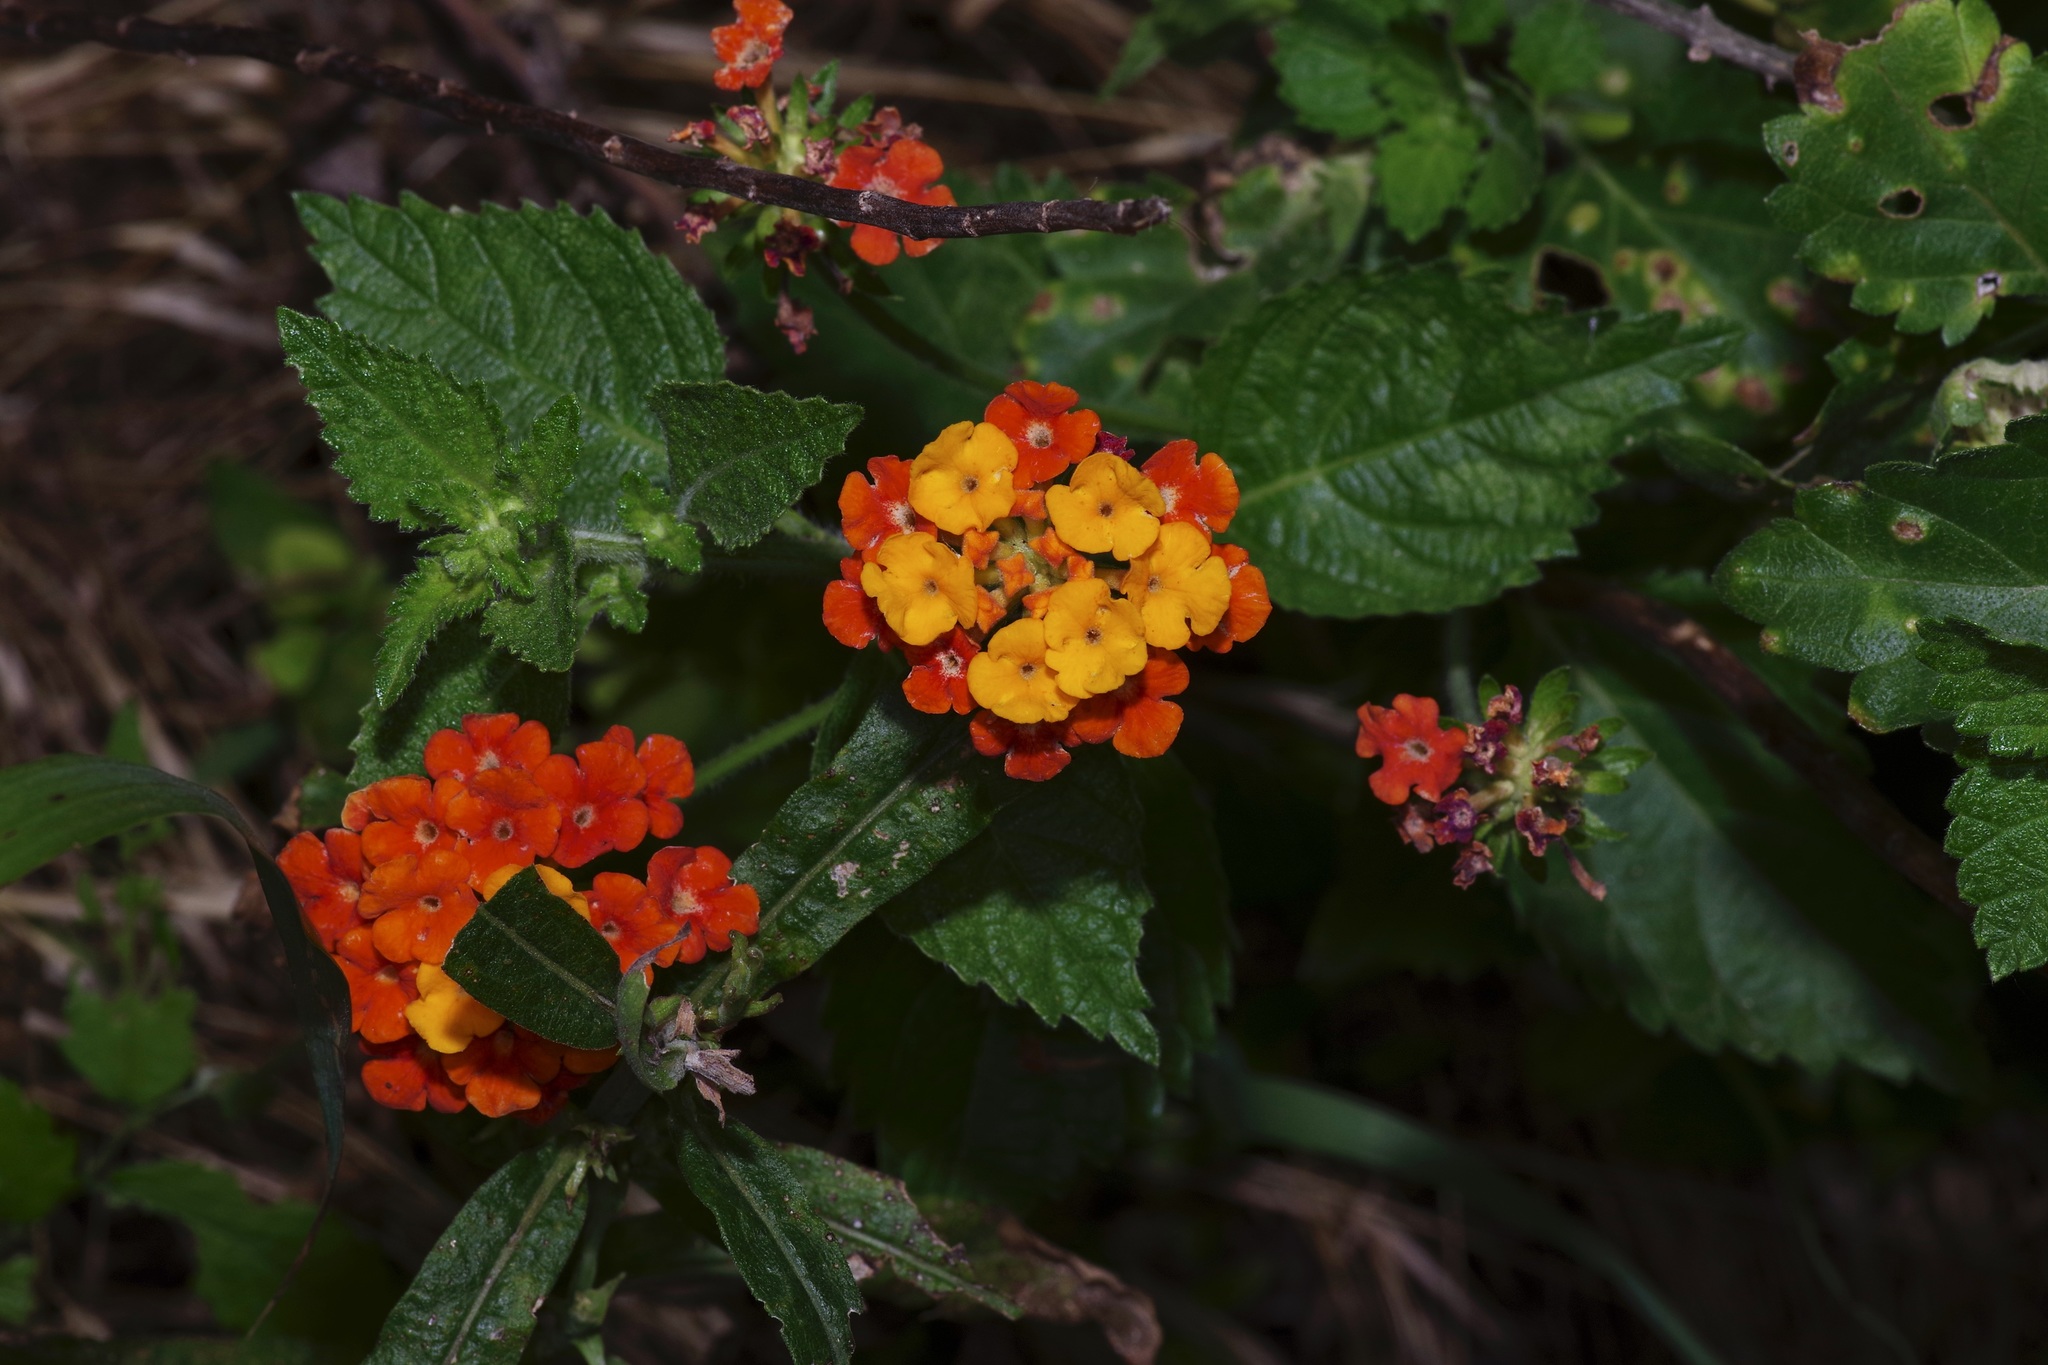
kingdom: Plantae
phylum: Tracheophyta
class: Magnoliopsida
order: Lamiales
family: Verbenaceae
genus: Lantana
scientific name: Lantana urticoides
